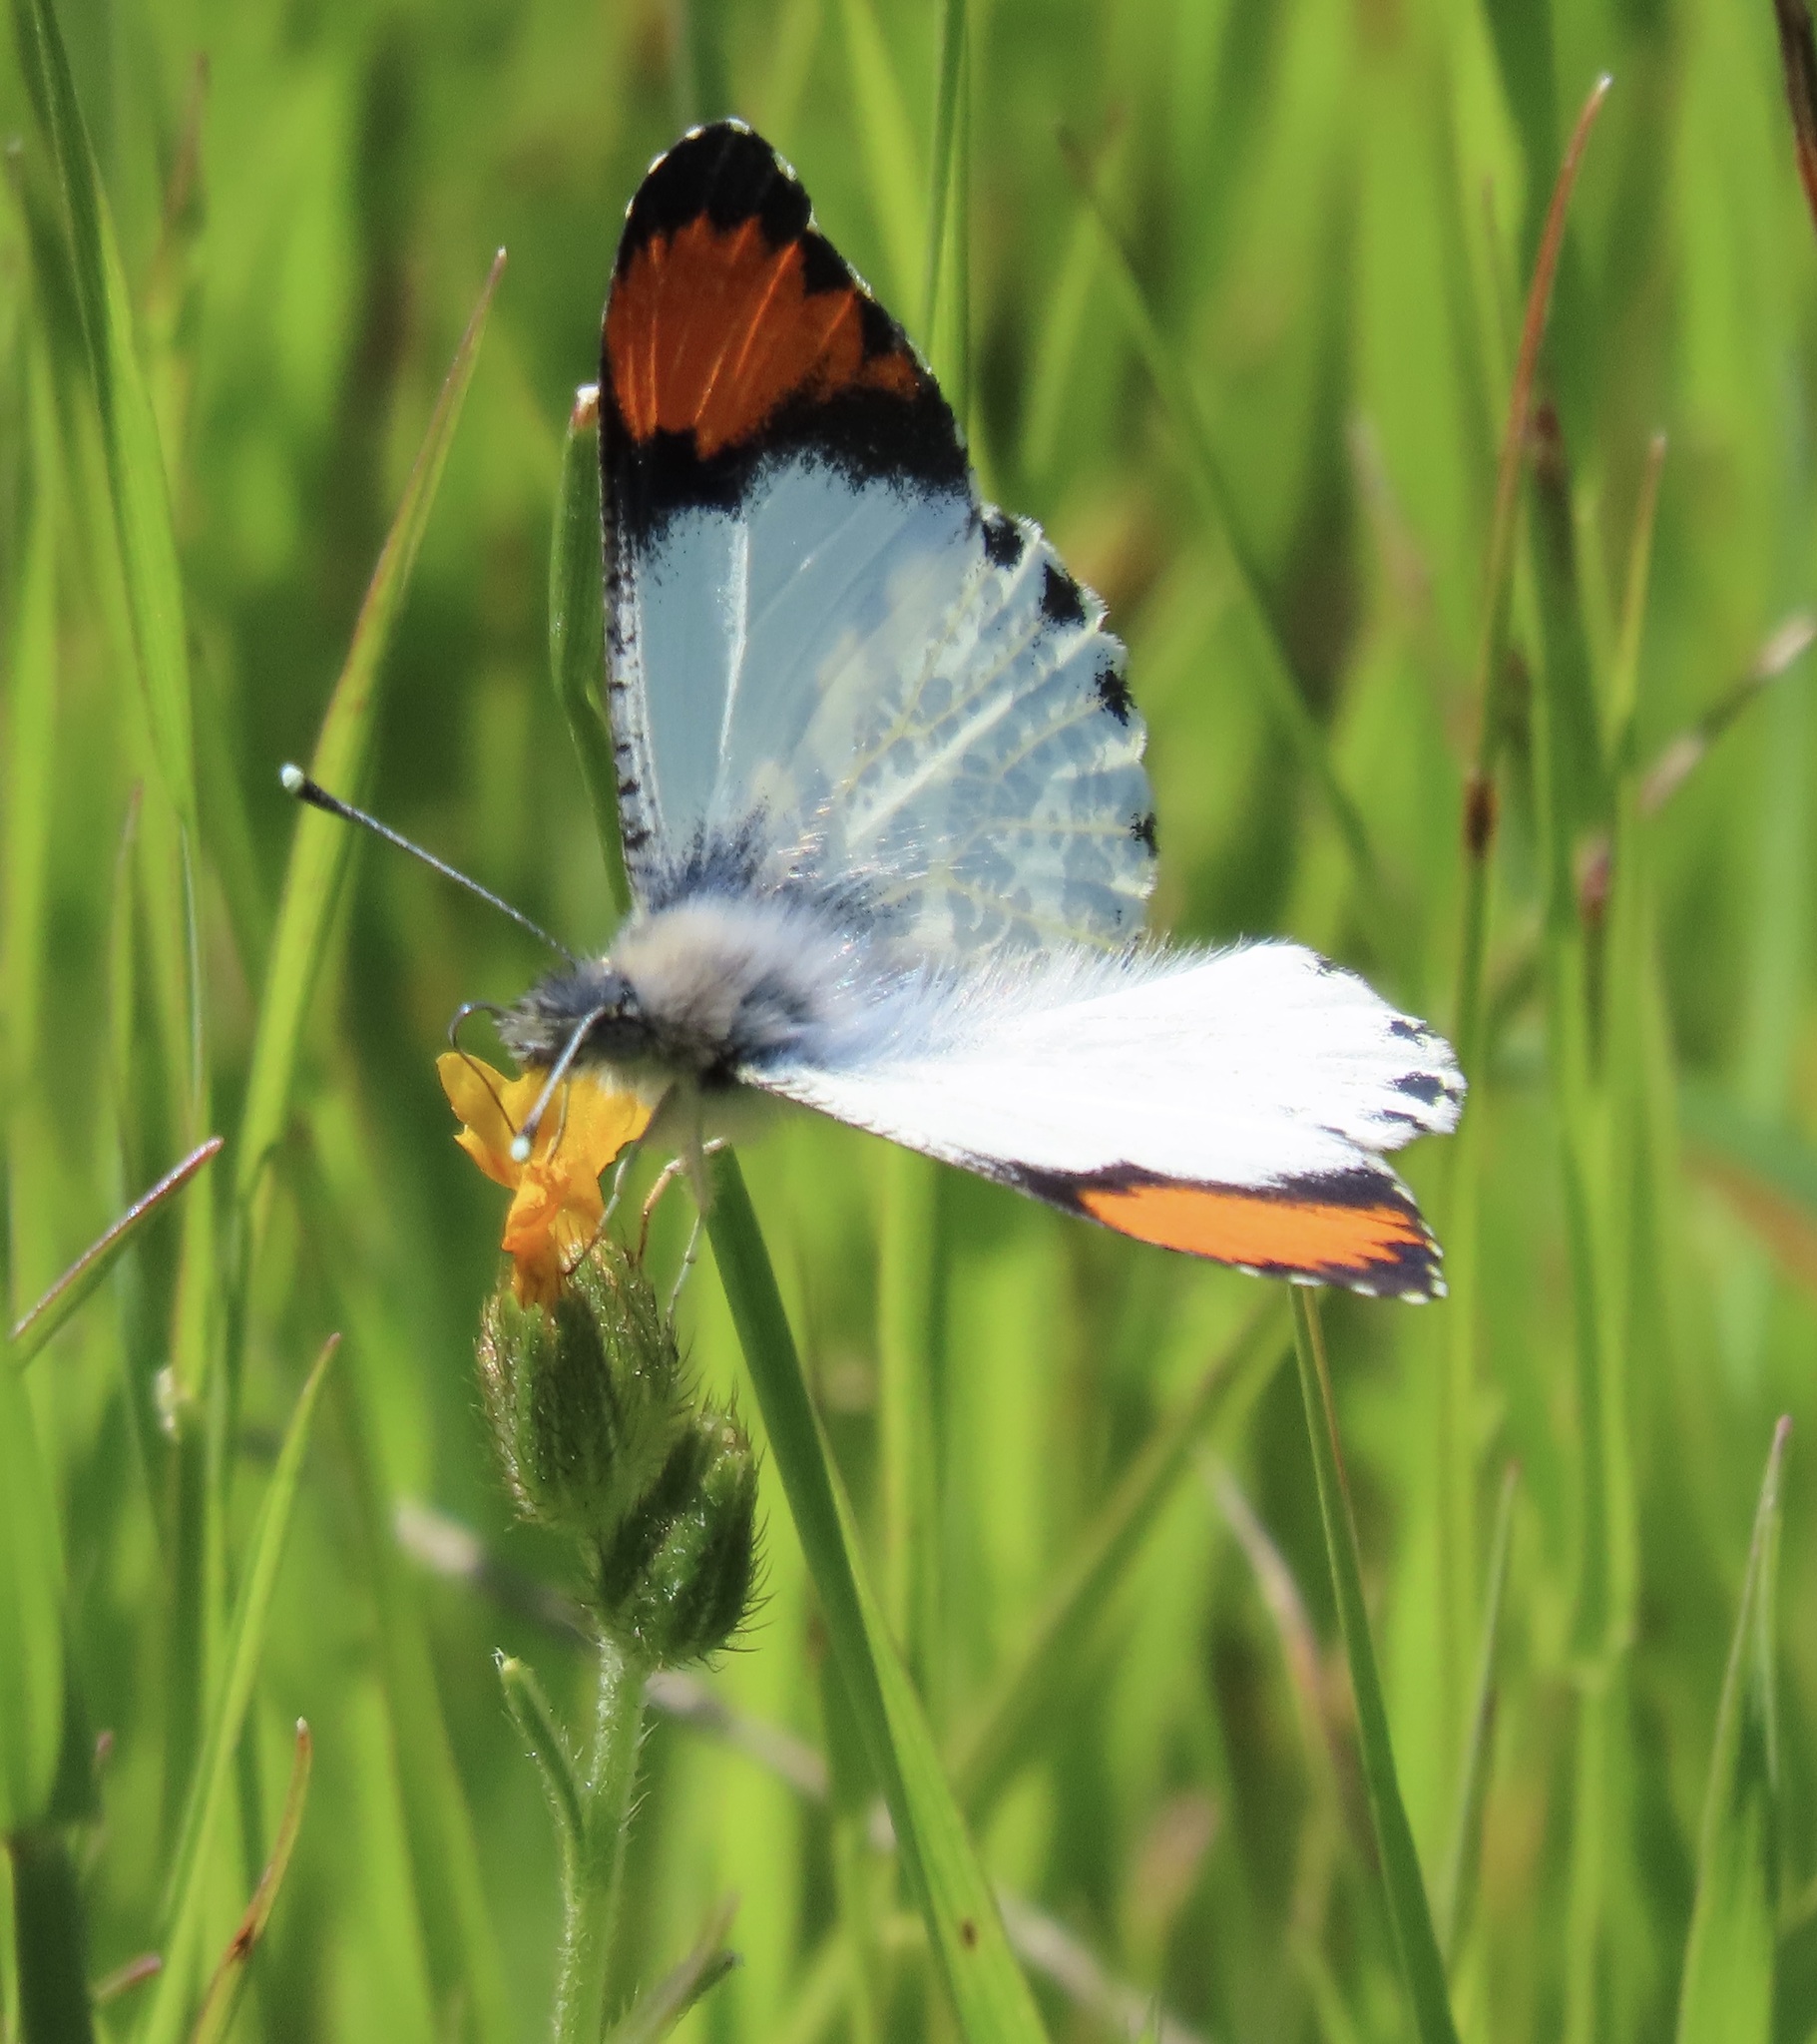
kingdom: Animalia
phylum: Arthropoda
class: Insecta
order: Lepidoptera
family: Pieridae
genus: Anthocharis
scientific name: Anthocharis sara
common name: Sara's orangetip
